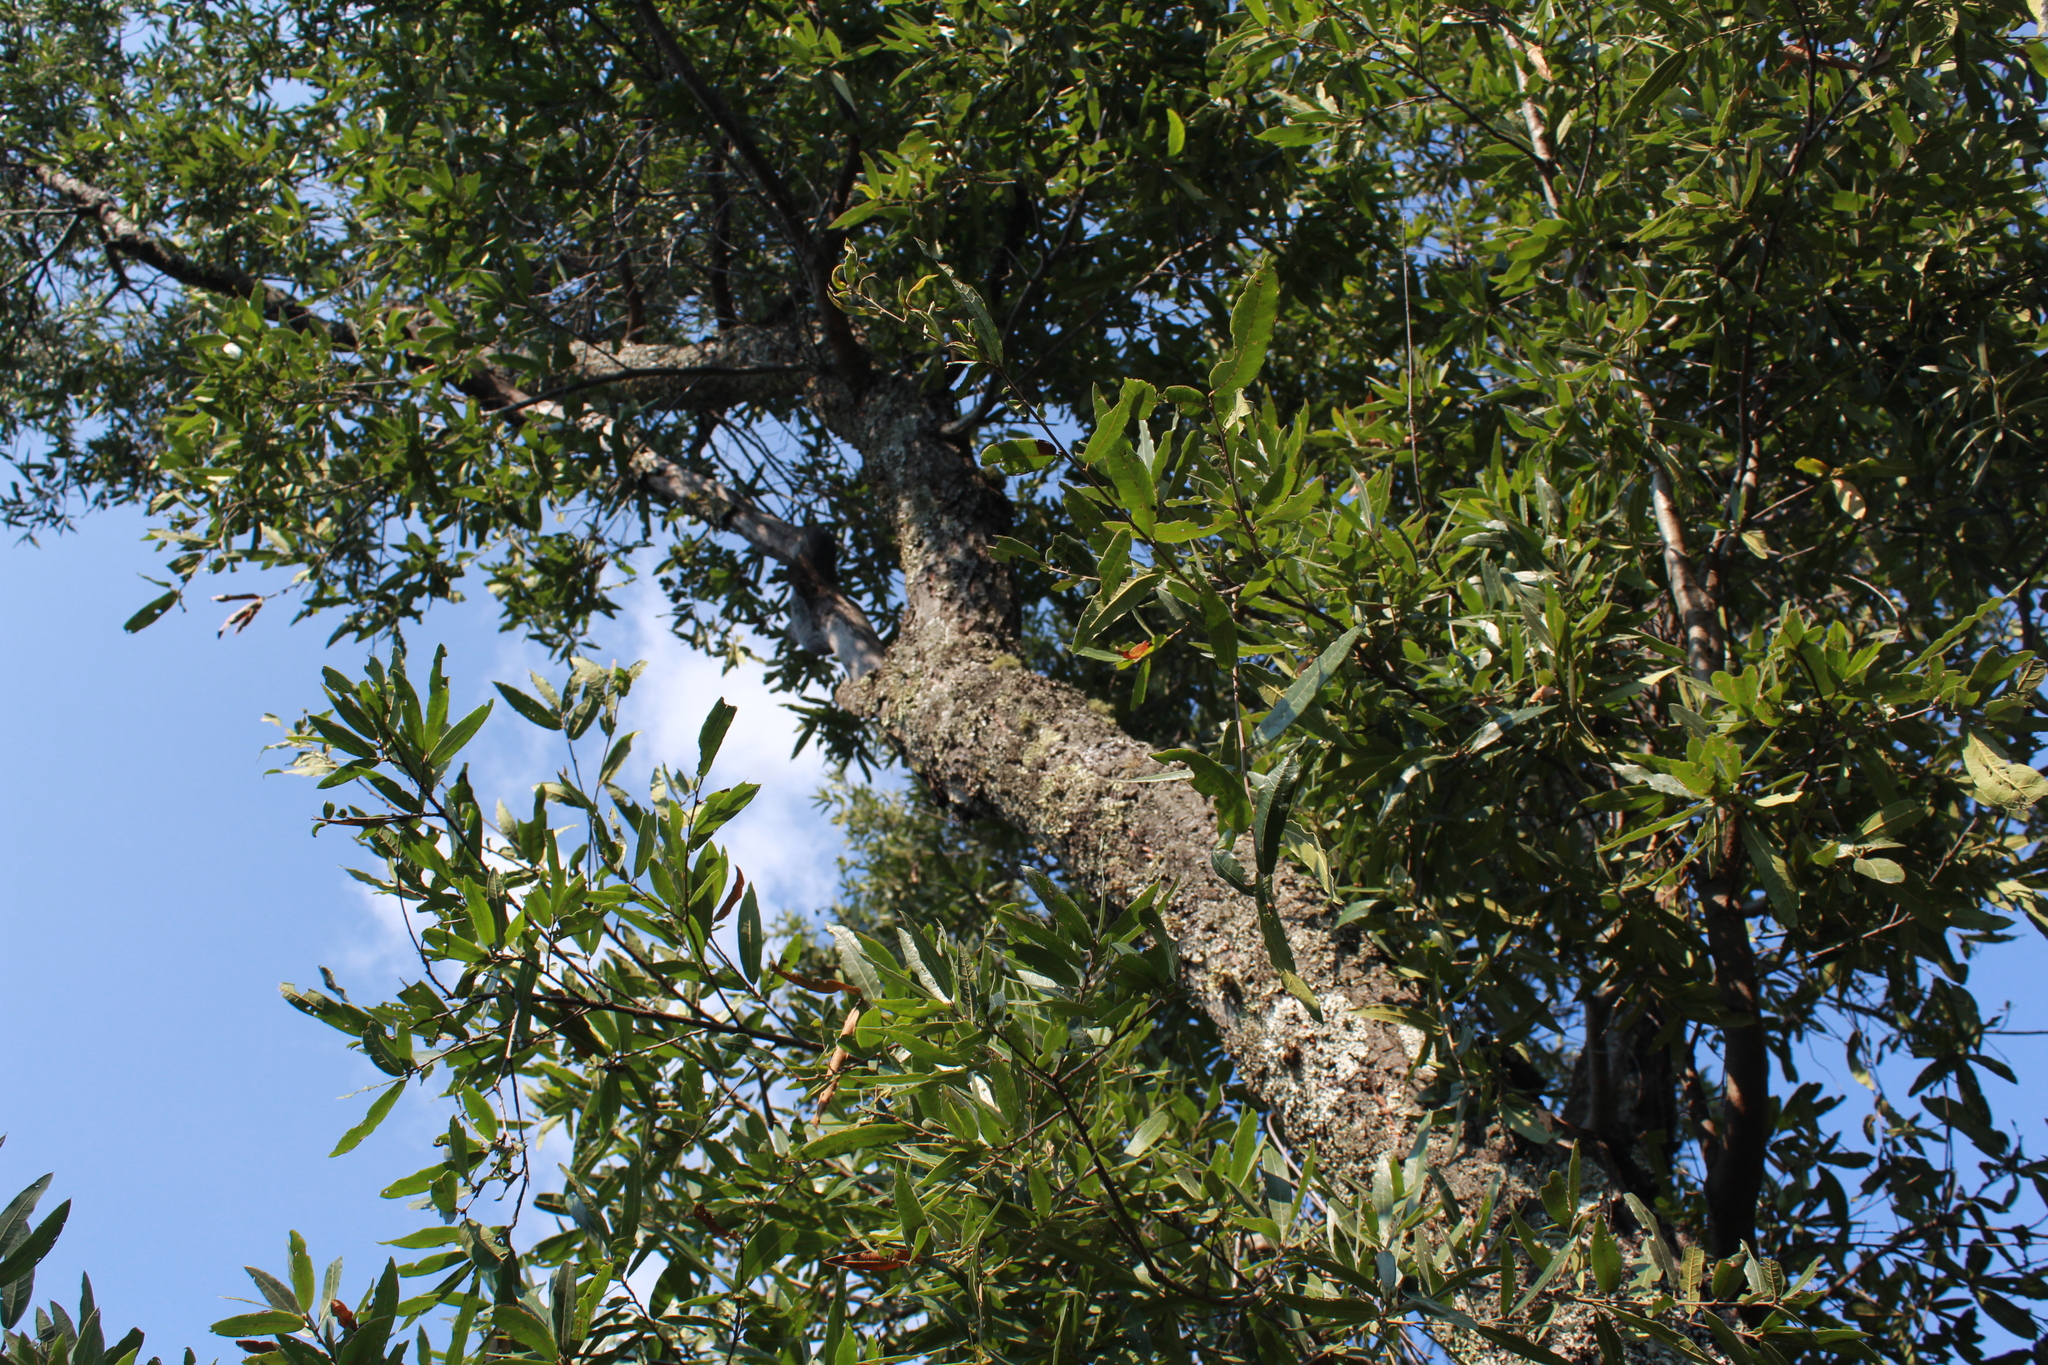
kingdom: Plantae
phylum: Tracheophyta
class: Magnoliopsida
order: Fagales
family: Fagaceae
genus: Quercus
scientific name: Quercus confertifolia
